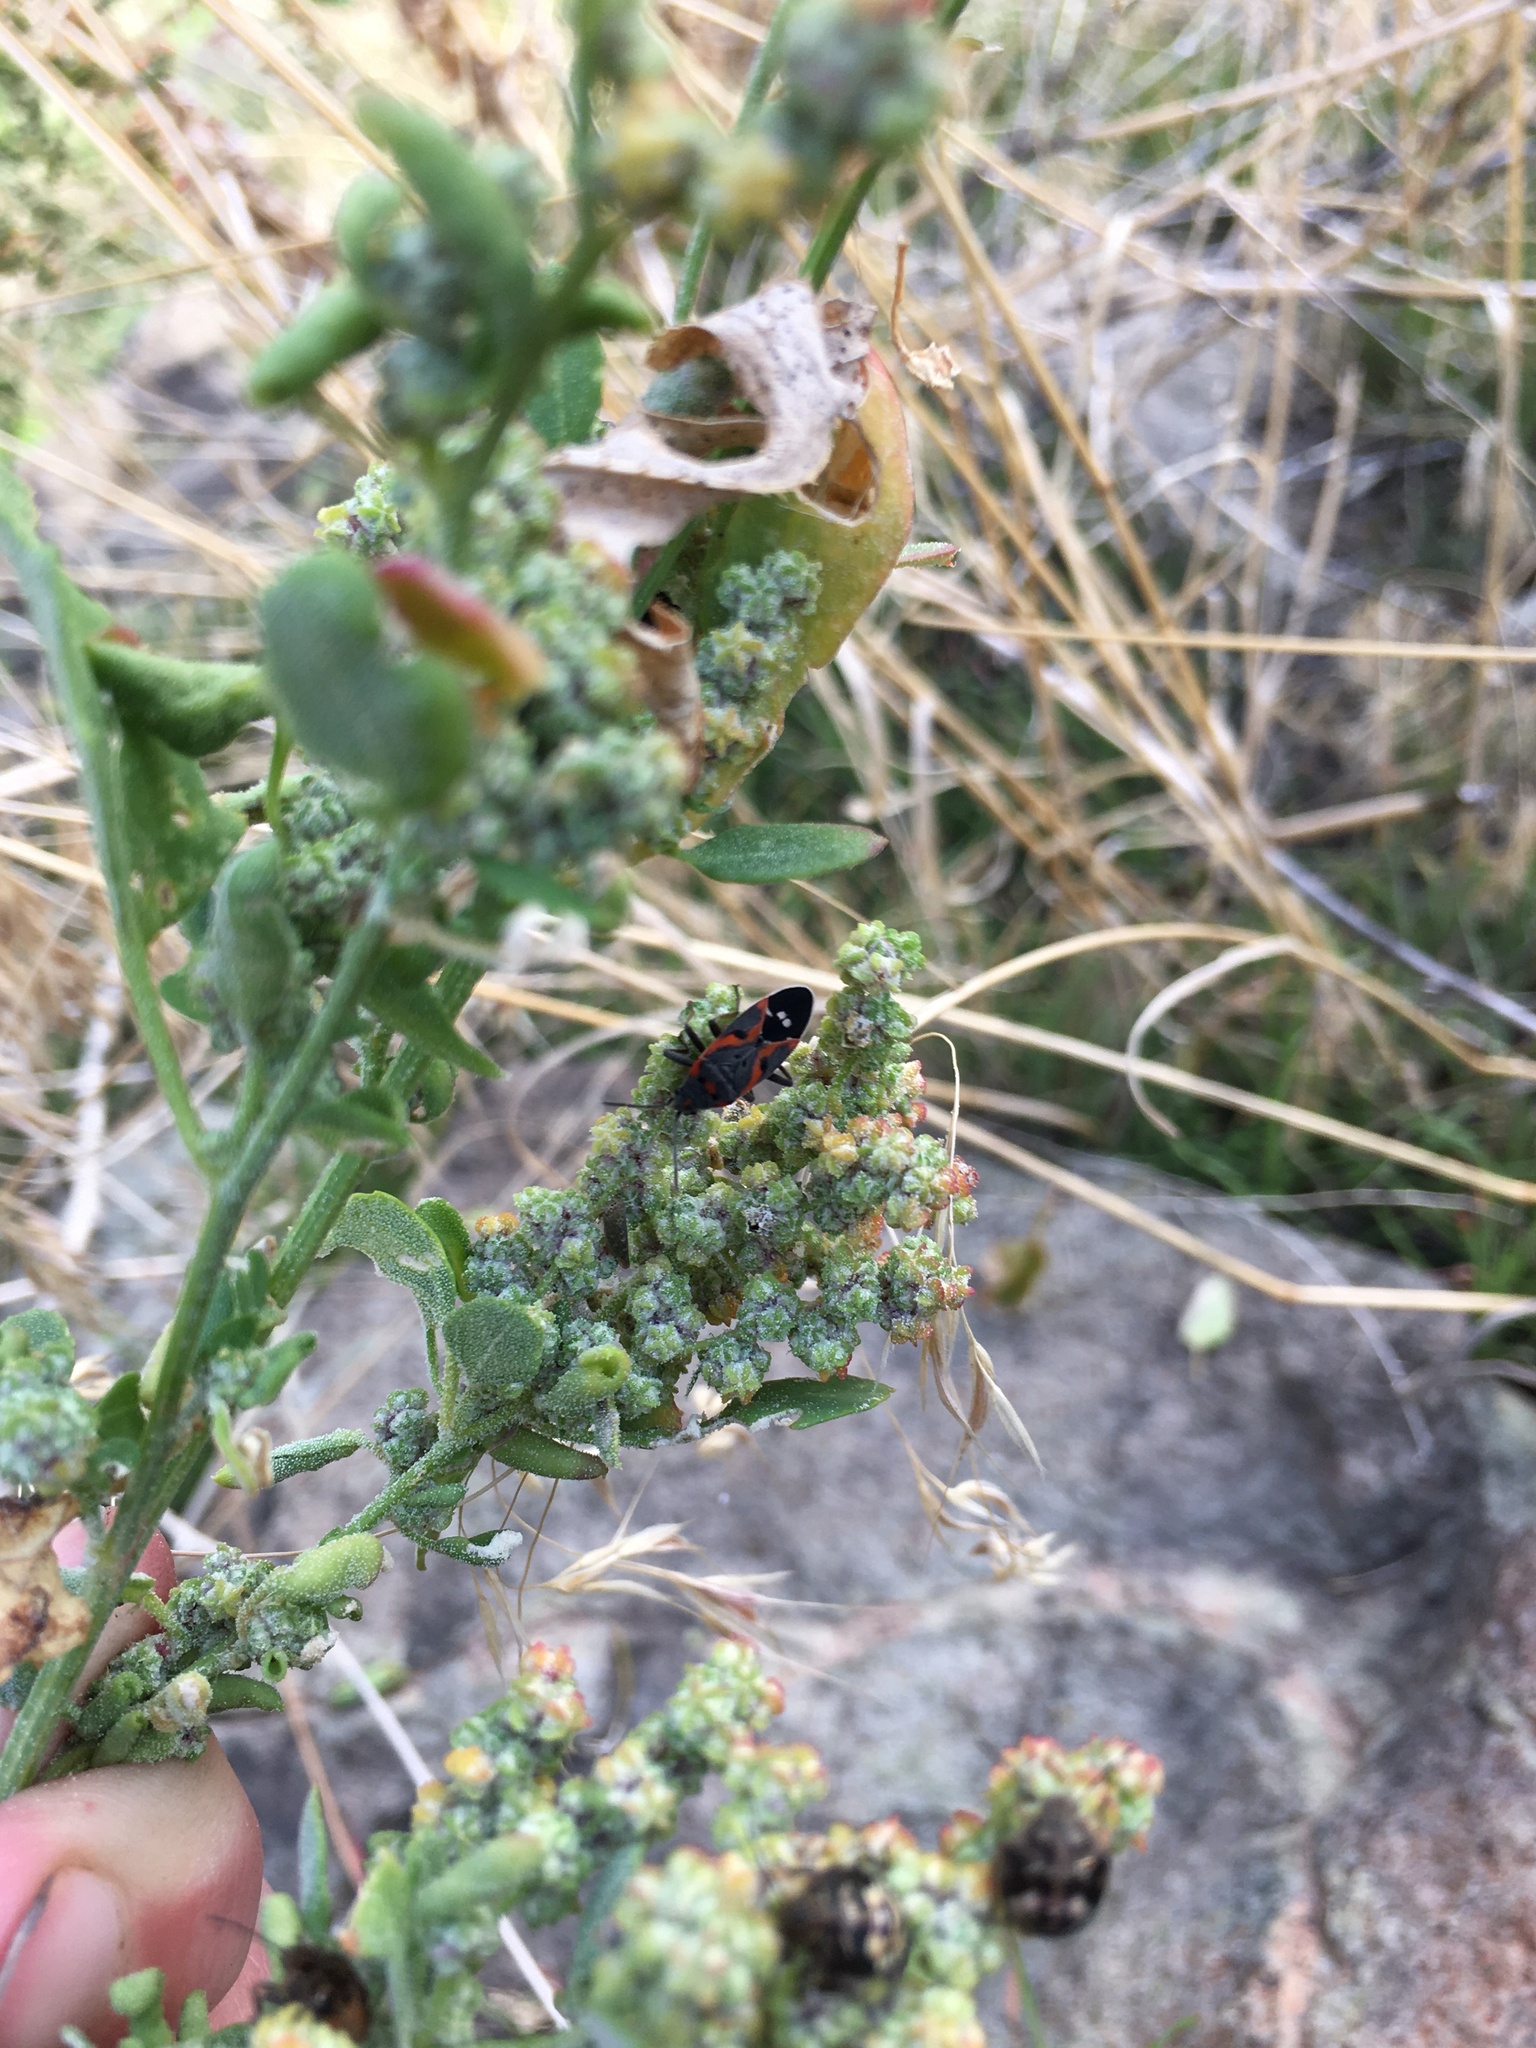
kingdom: Animalia
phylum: Arthropoda
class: Insecta
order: Hemiptera
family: Lygaeidae
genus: Lygaeus
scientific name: Lygaeus kalmii
